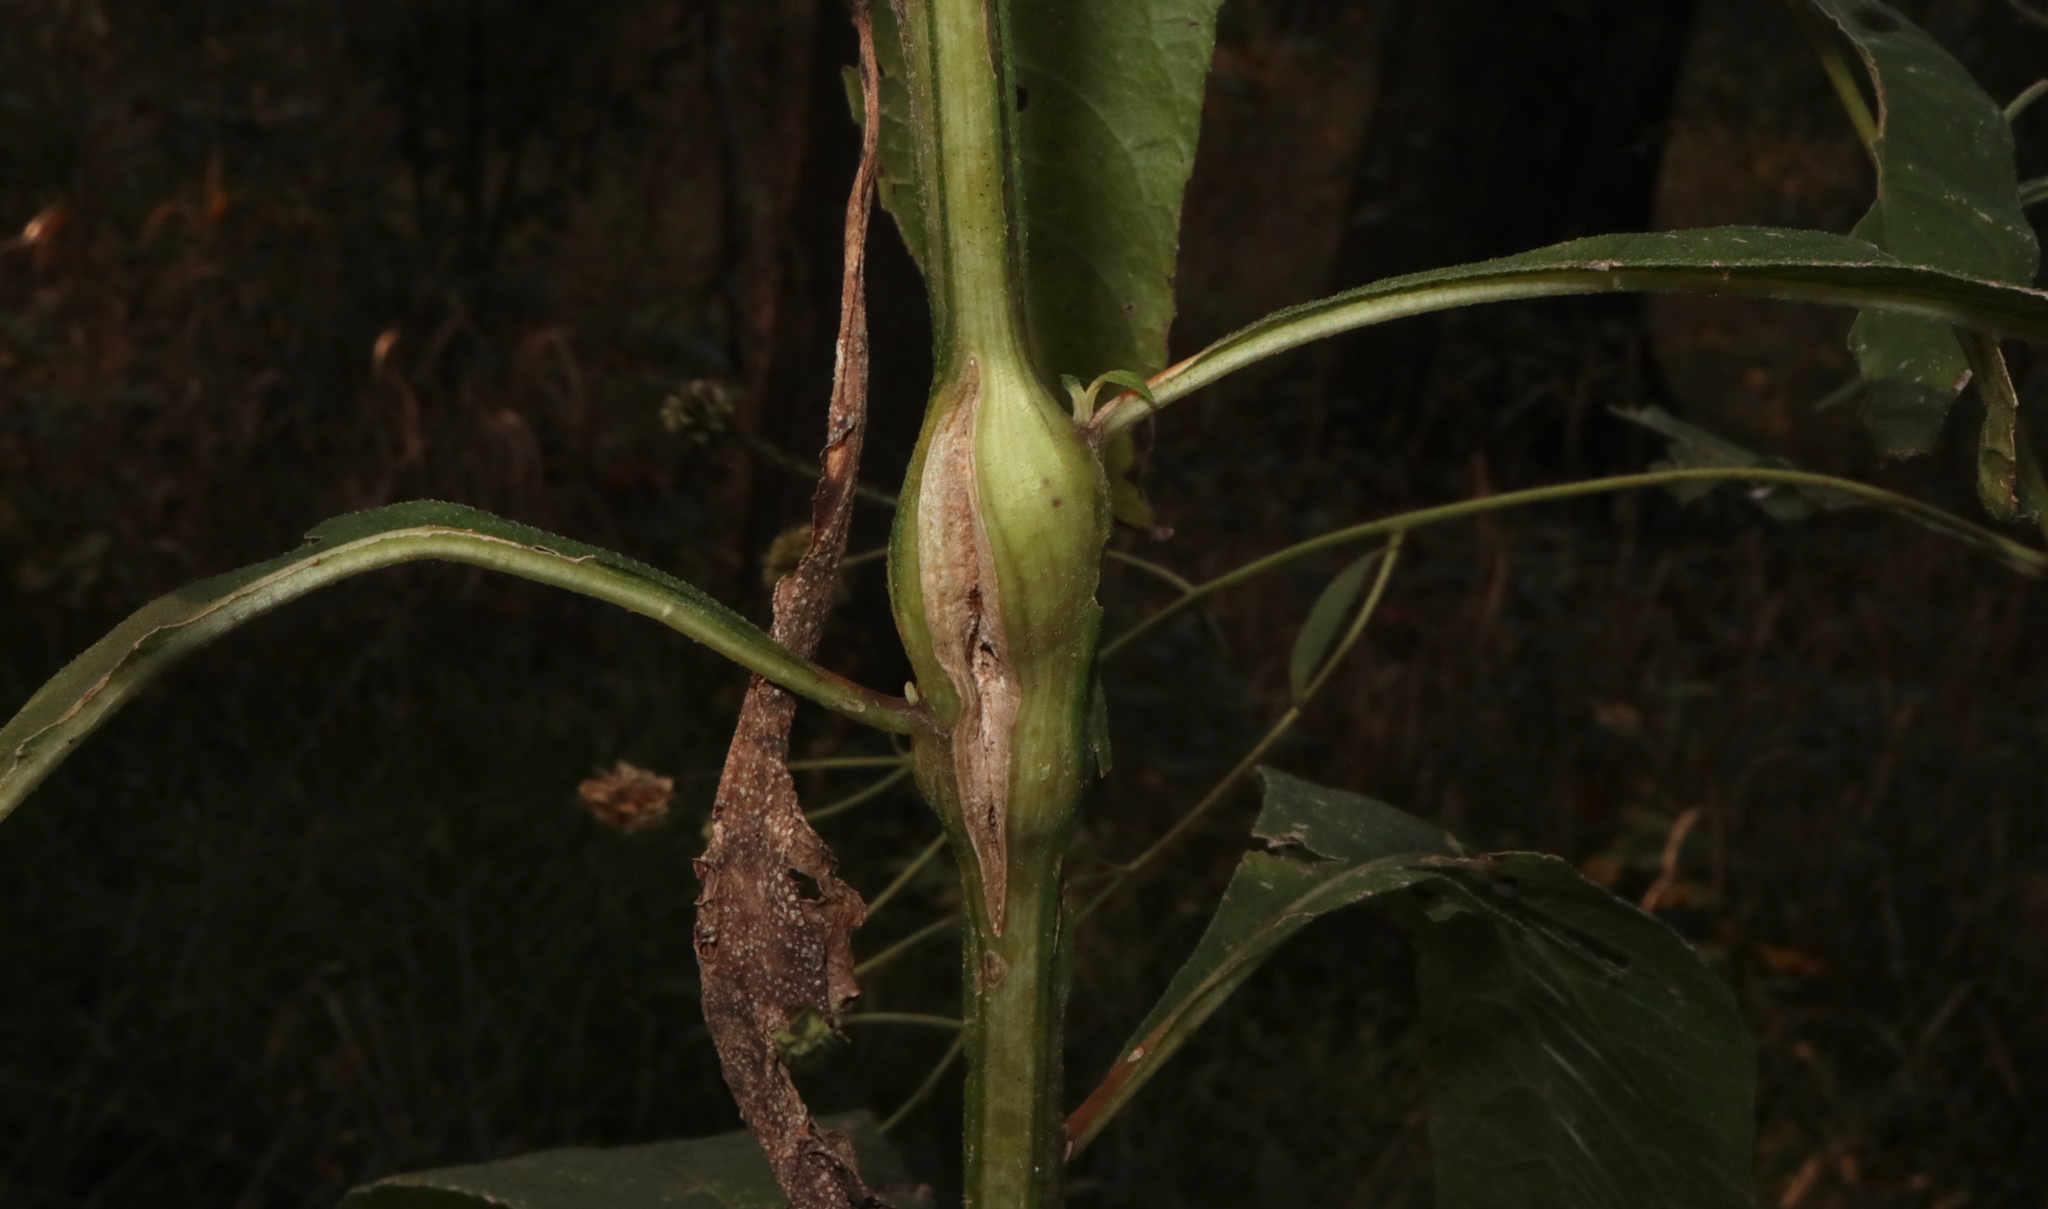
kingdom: Animalia
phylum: Arthropoda
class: Insecta
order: Diptera
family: Cecidomyiidae
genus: Neolasioptera
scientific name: Neolasioptera verbesinae
